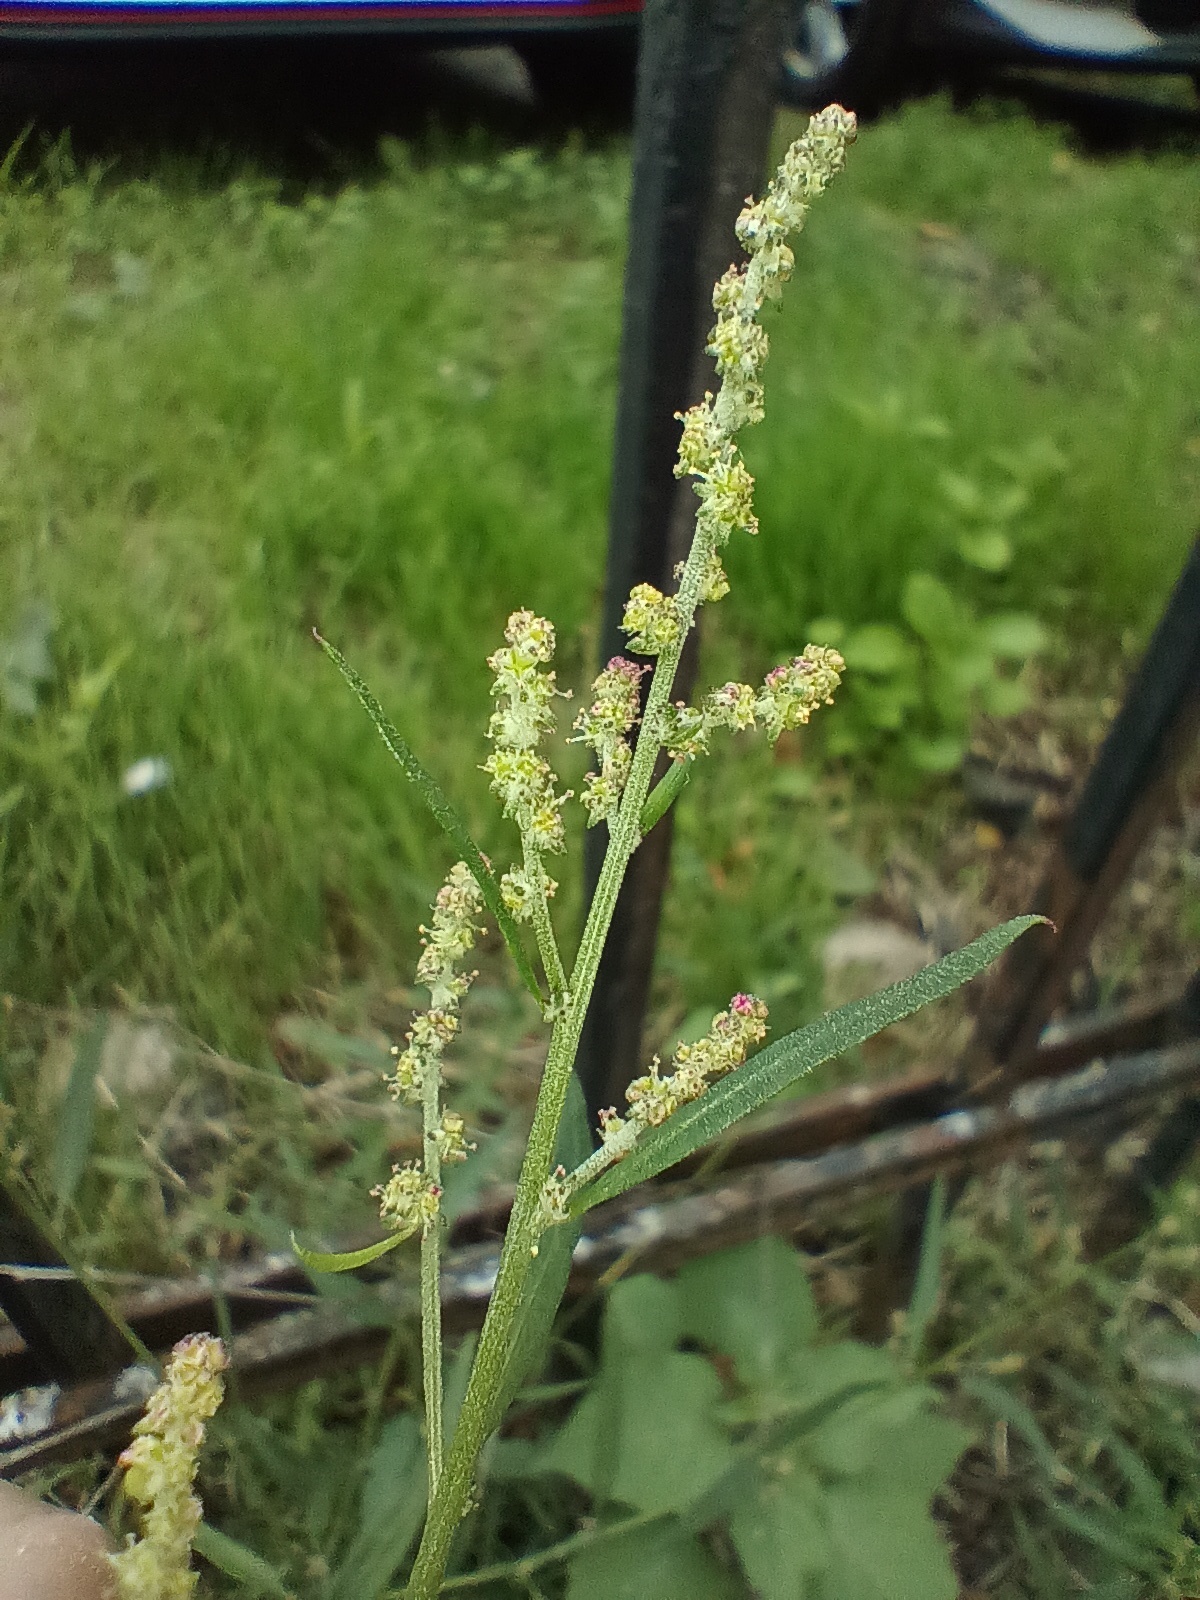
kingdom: Plantae
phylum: Tracheophyta
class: Magnoliopsida
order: Caryophyllales
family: Amaranthaceae
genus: Atriplex
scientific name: Atriplex patula
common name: Common orache
